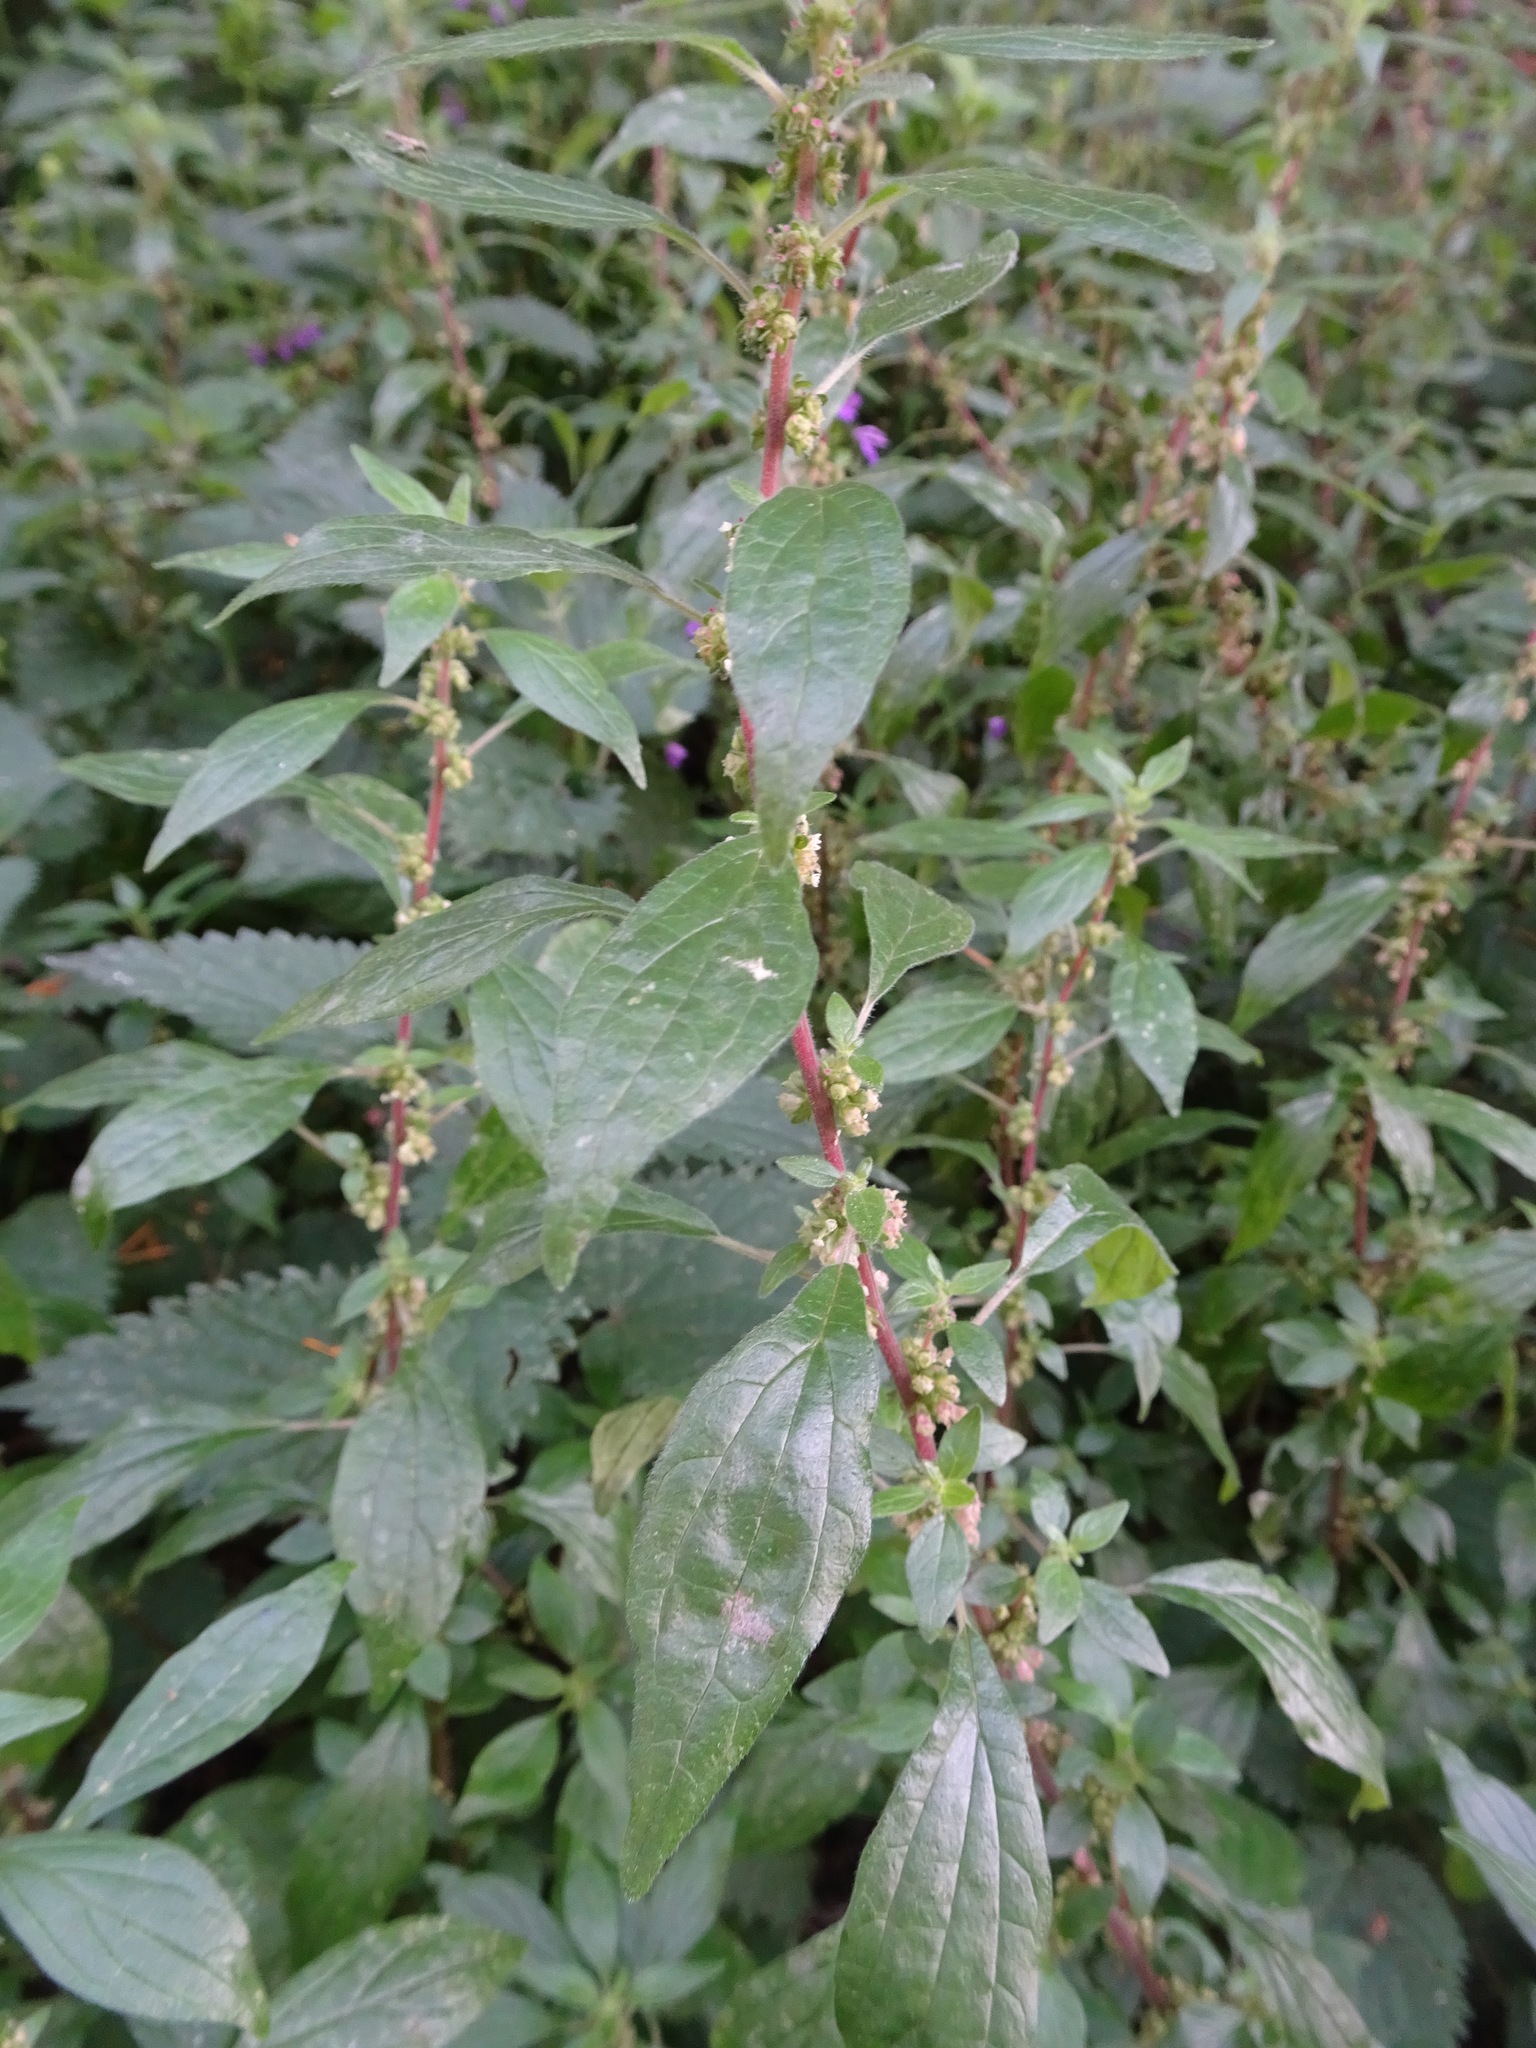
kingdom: Plantae
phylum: Tracheophyta
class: Magnoliopsida
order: Rosales
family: Urticaceae
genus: Parietaria
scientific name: Parietaria judaica
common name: Pellitory-of-the-wall
